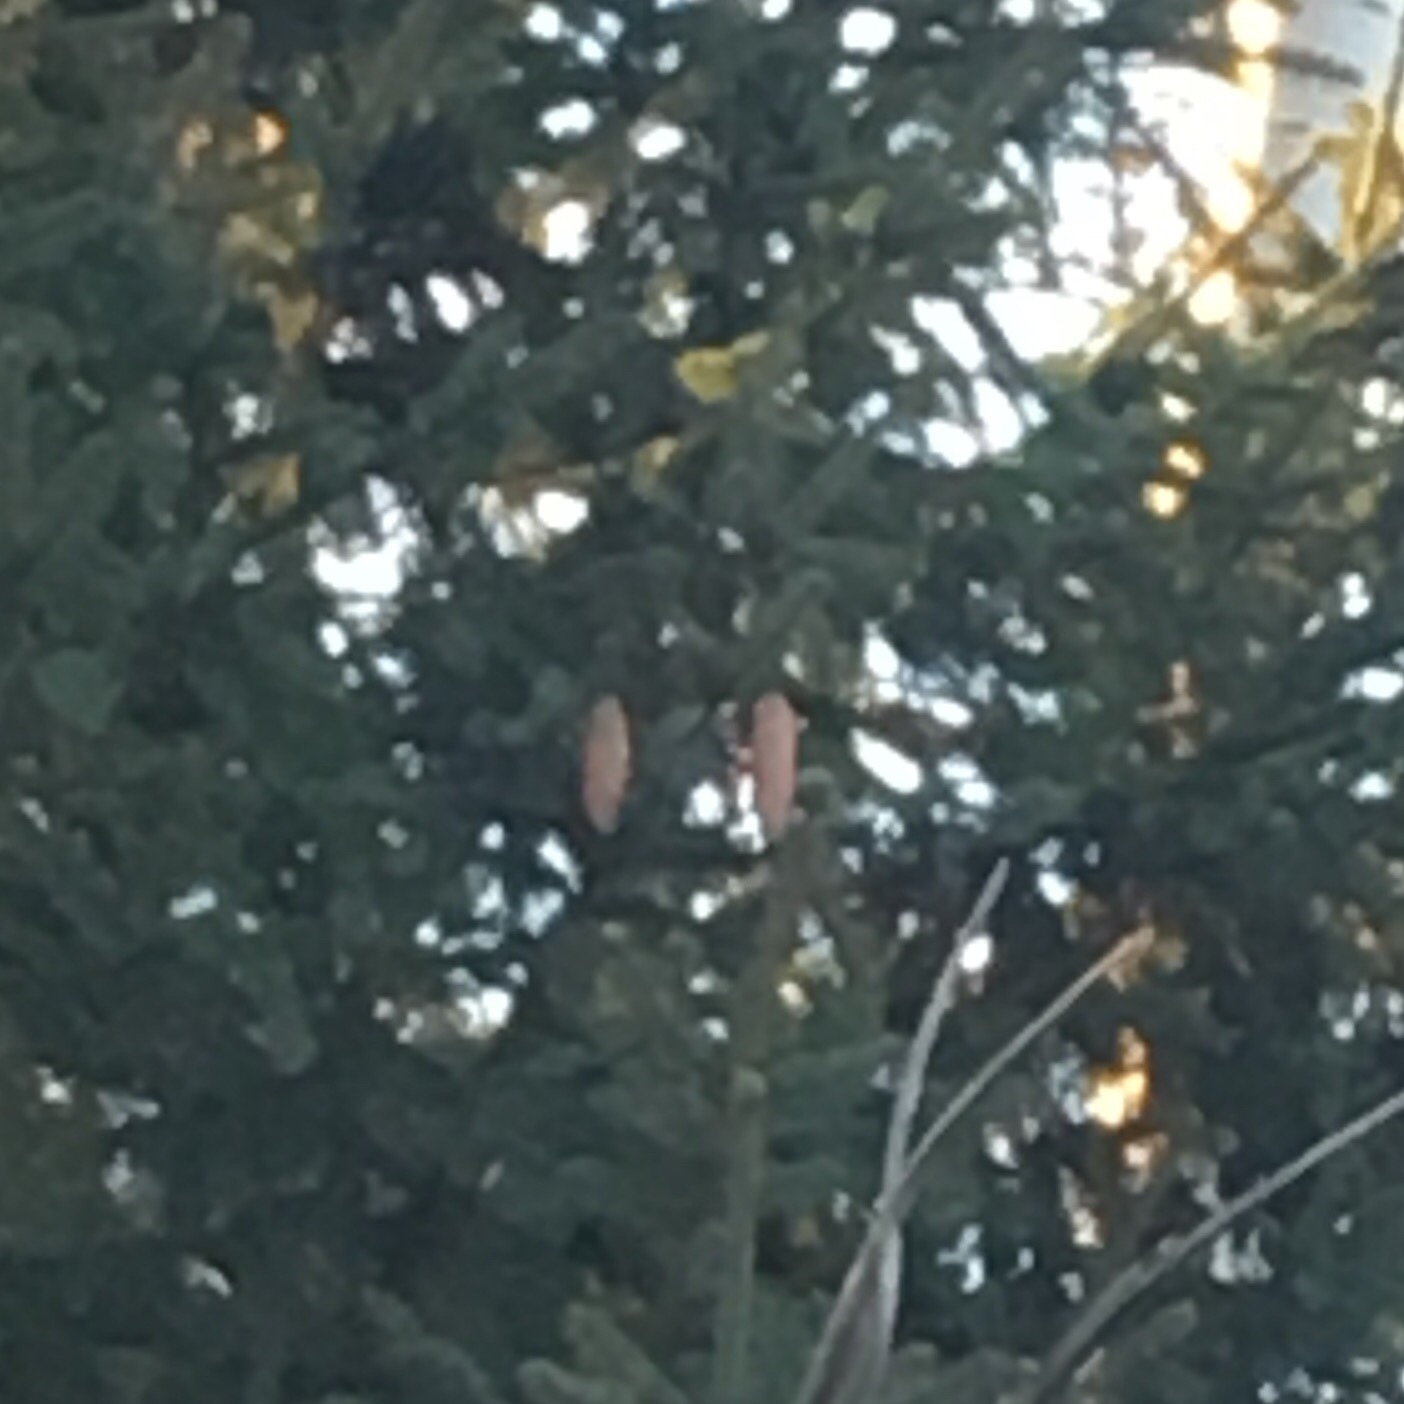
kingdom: Plantae
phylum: Tracheophyta
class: Pinopsida
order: Pinales
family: Pinaceae
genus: Picea
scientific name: Picea abies
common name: Norway spruce
